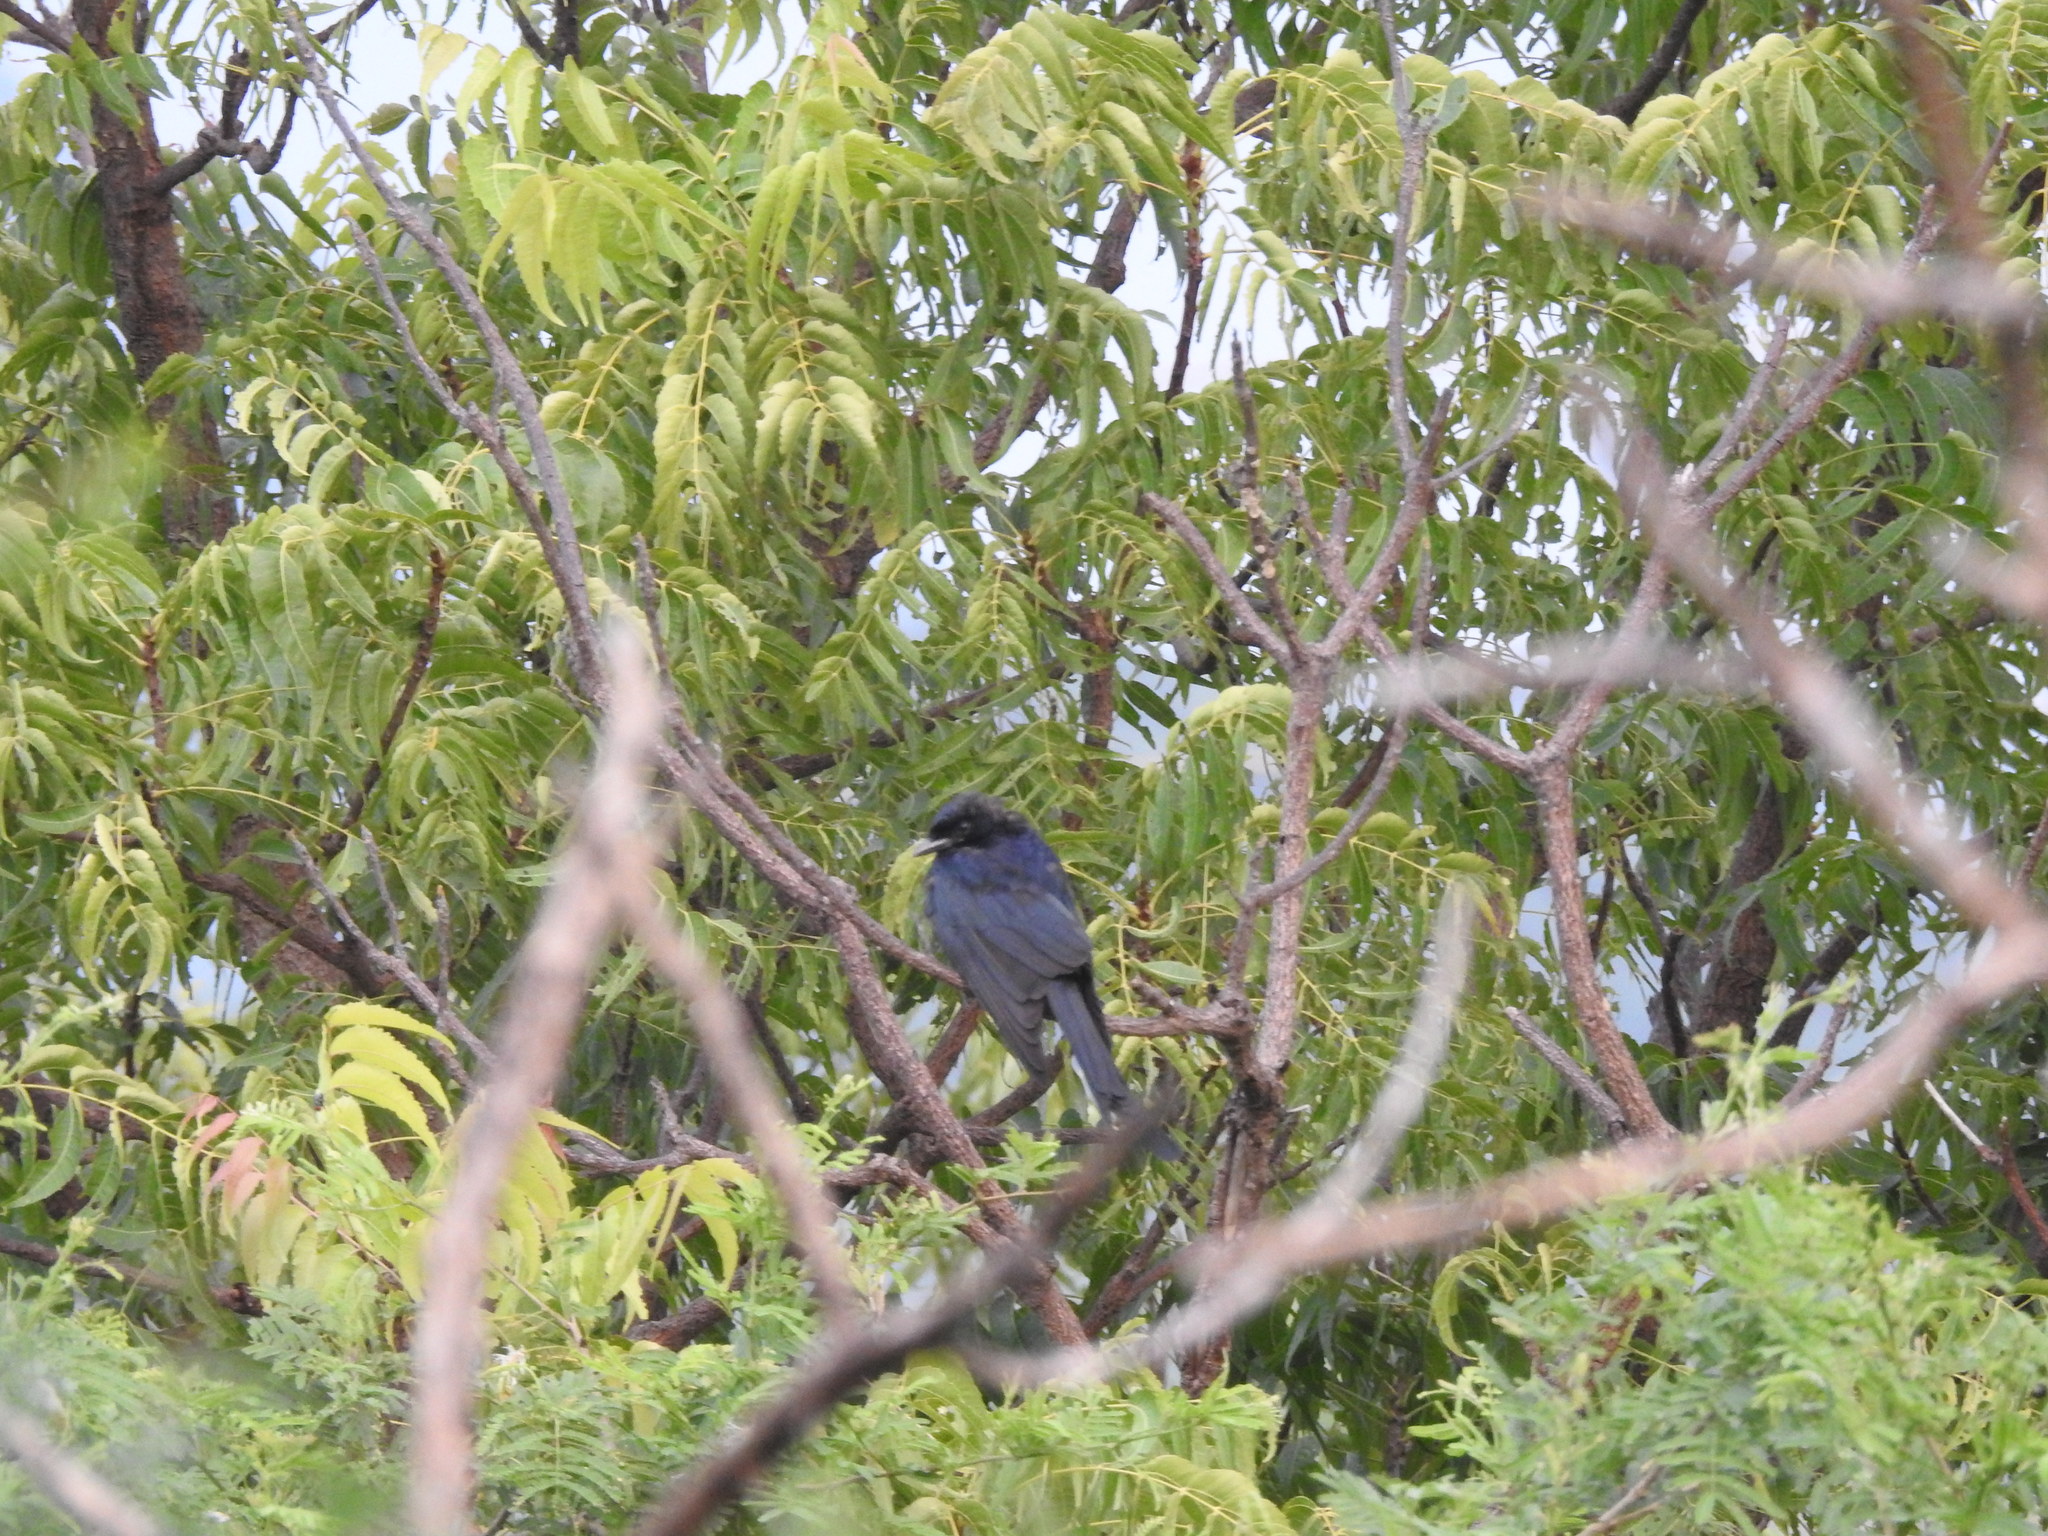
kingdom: Animalia
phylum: Chordata
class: Aves
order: Passeriformes
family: Dicruridae
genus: Dicrurus
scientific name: Dicrurus macrocercus
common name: Black drongo
